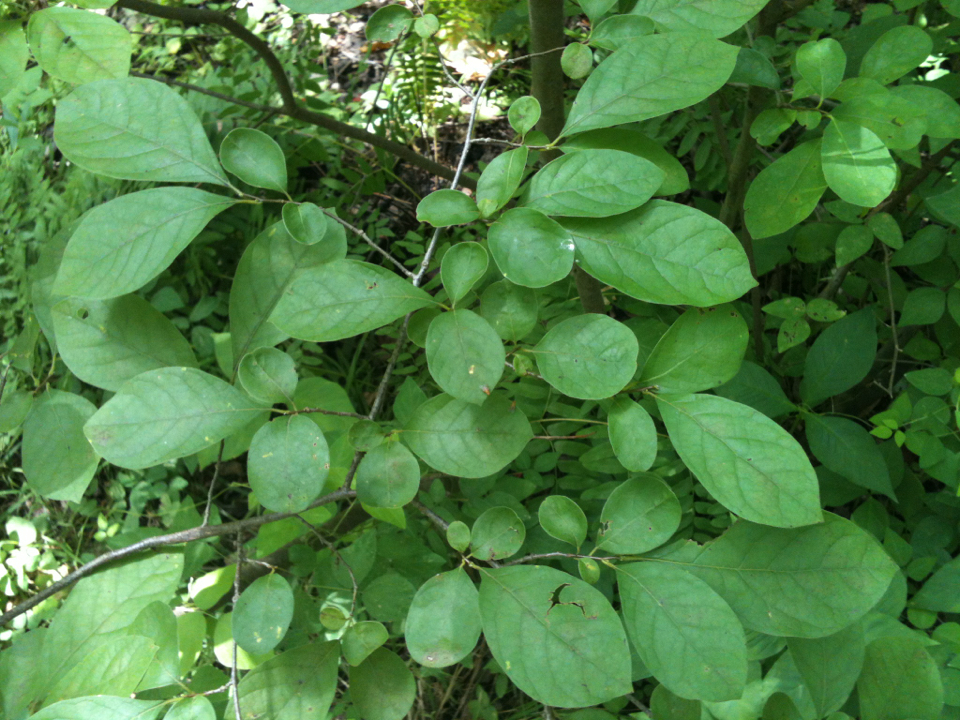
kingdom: Plantae
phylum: Tracheophyta
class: Magnoliopsida
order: Laurales
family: Lauraceae
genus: Lindera
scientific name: Lindera benzoin
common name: Spicebush
